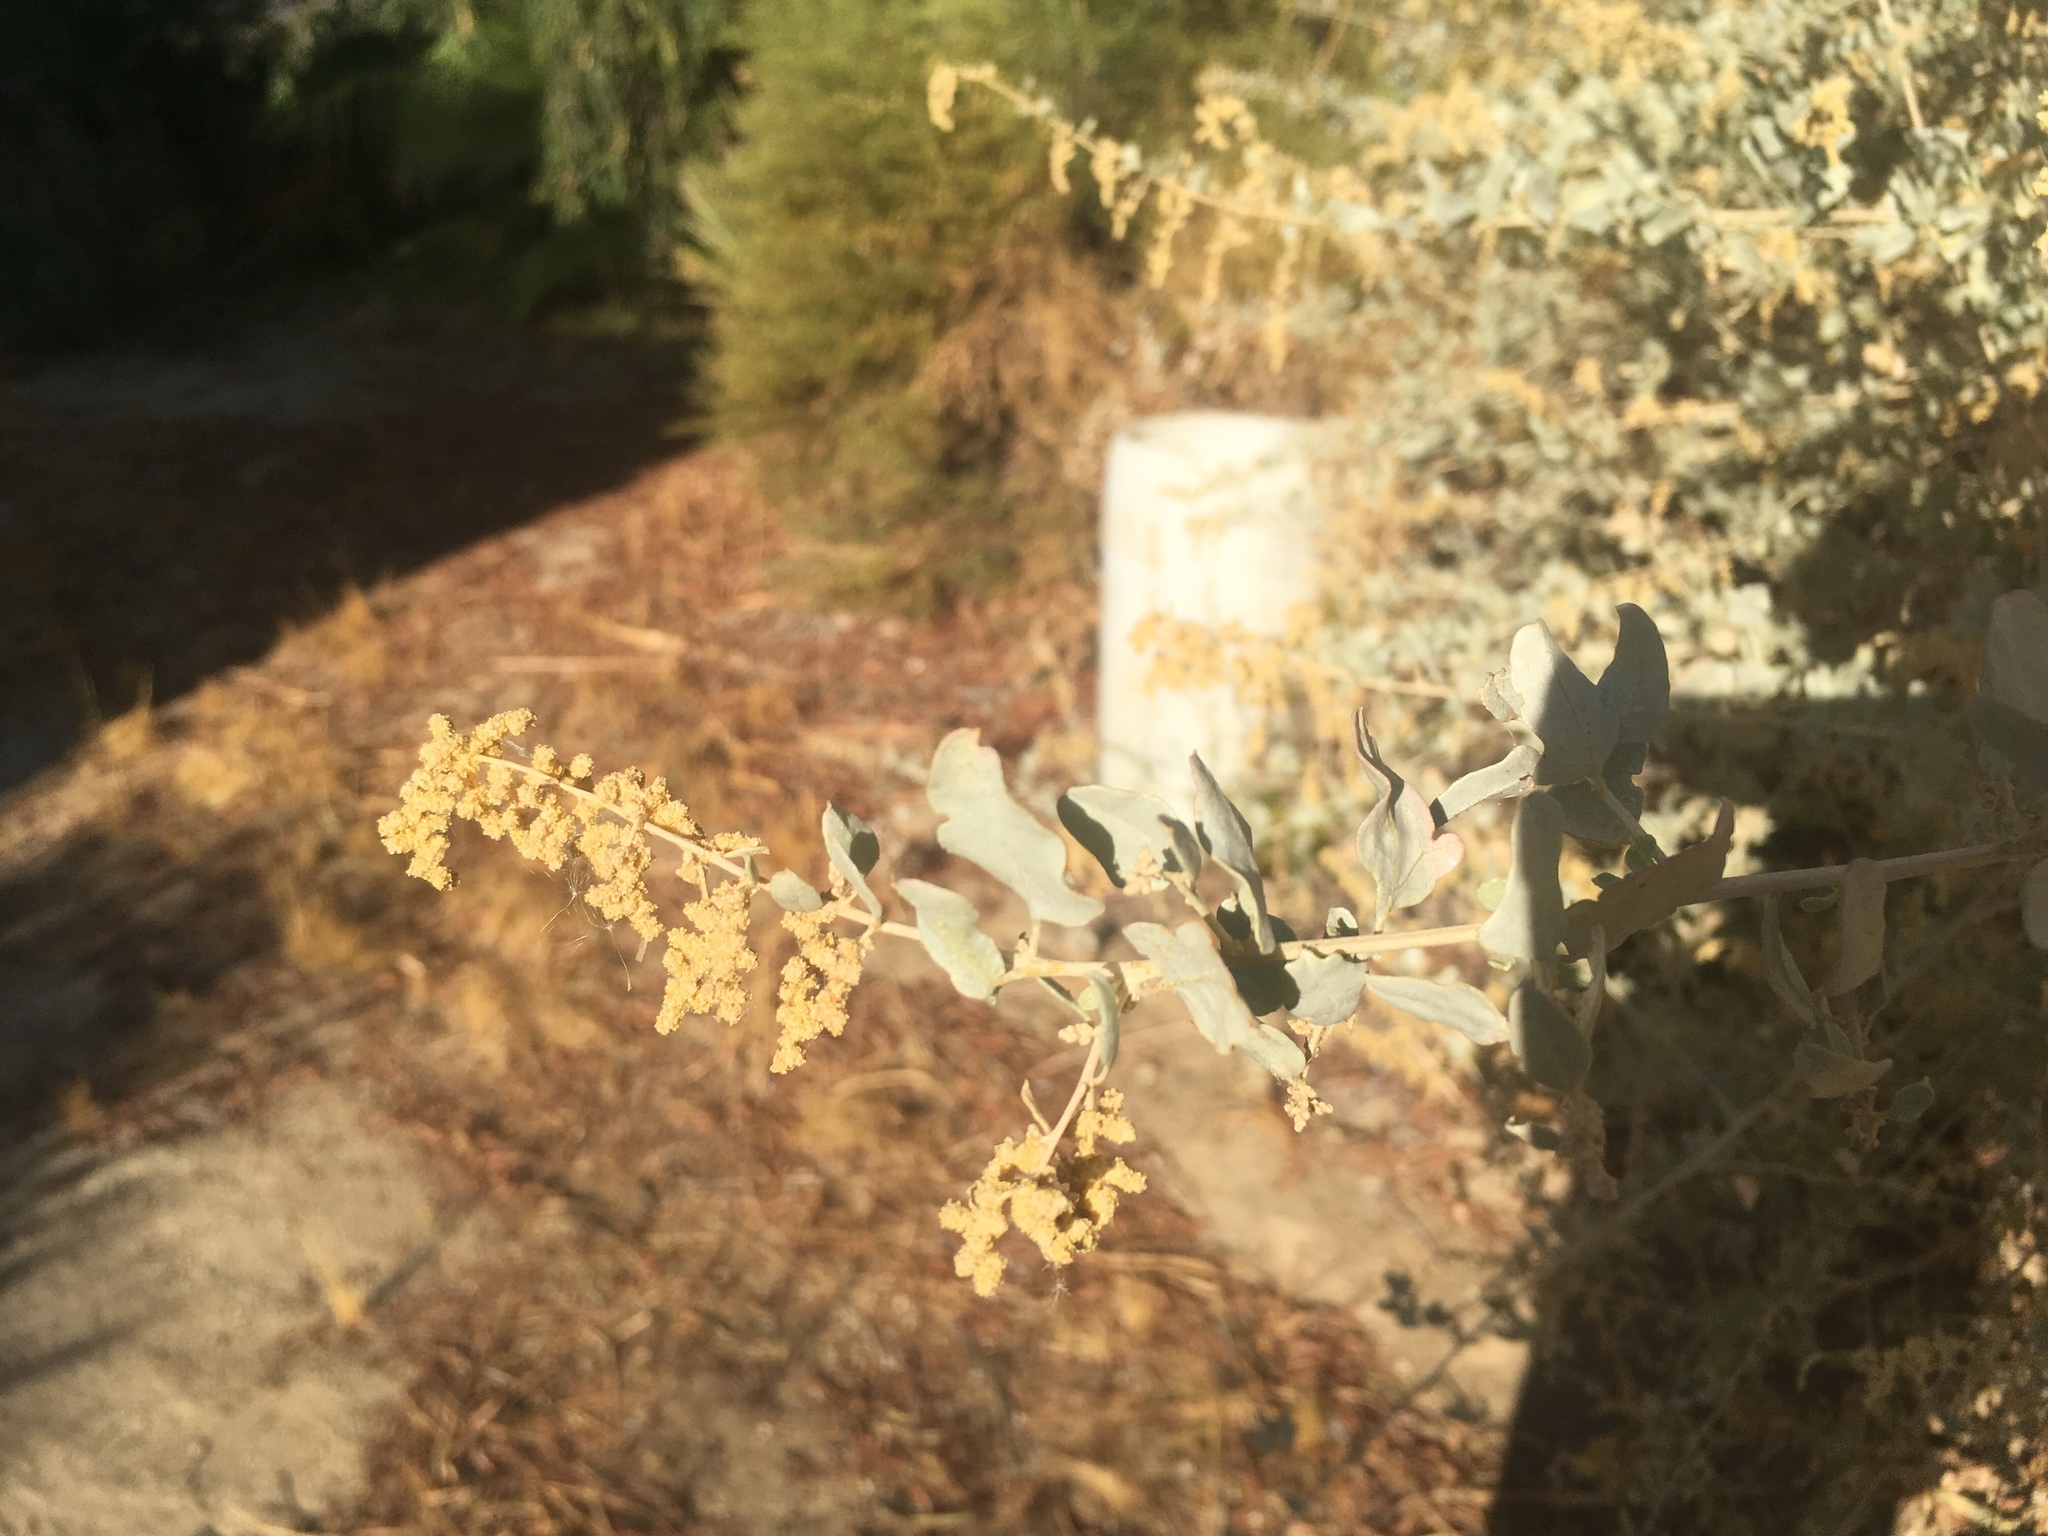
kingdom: Plantae
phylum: Tracheophyta
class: Magnoliopsida
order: Caryophyllales
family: Amaranthaceae
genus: Atriplex
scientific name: Atriplex lentiformis
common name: Big saltbush
